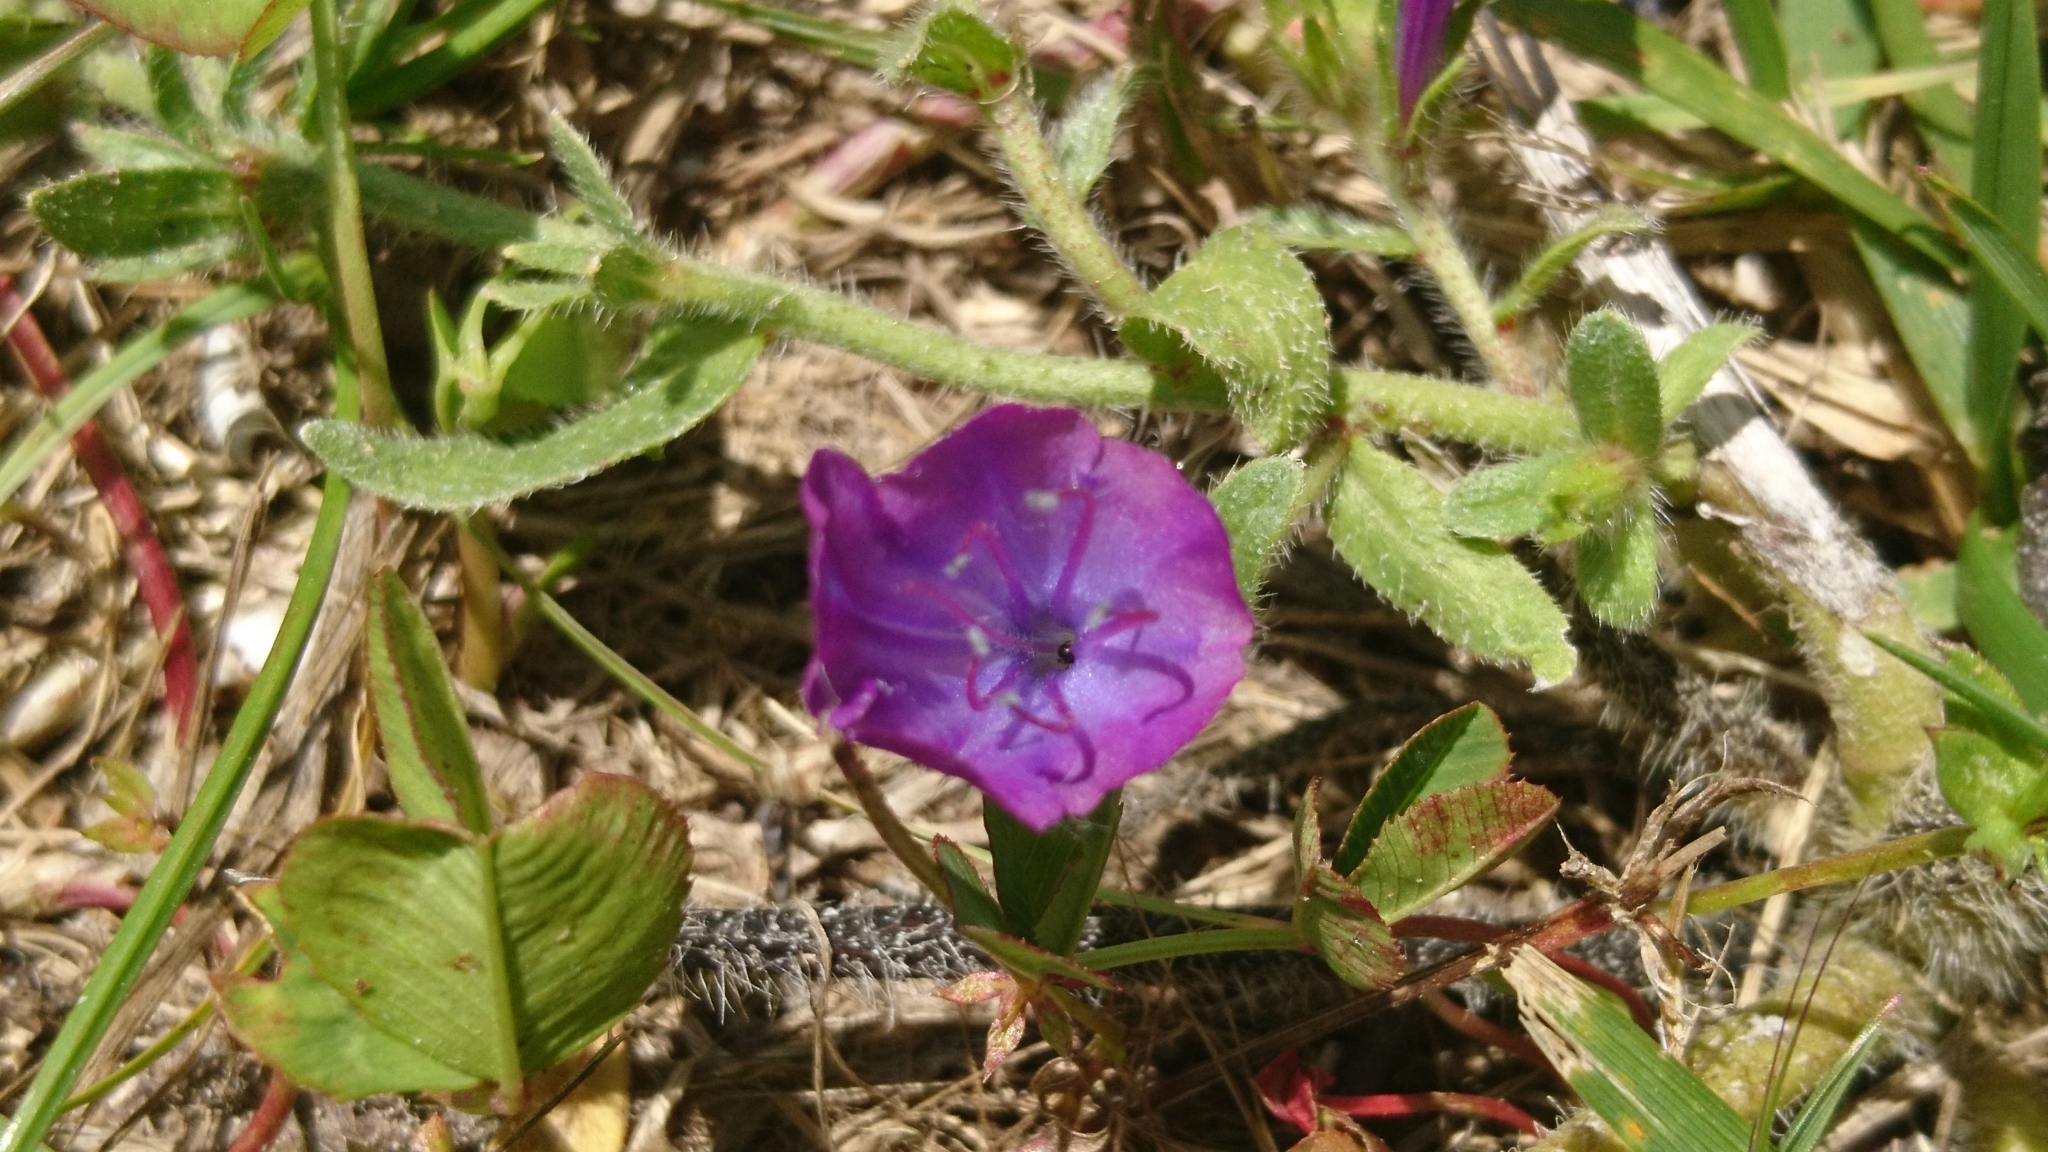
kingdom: Plantae
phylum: Tracheophyta
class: Magnoliopsida
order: Boraginales
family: Boraginaceae
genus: Echium
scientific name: Echium plantagineum
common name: Purple viper's-bugloss
